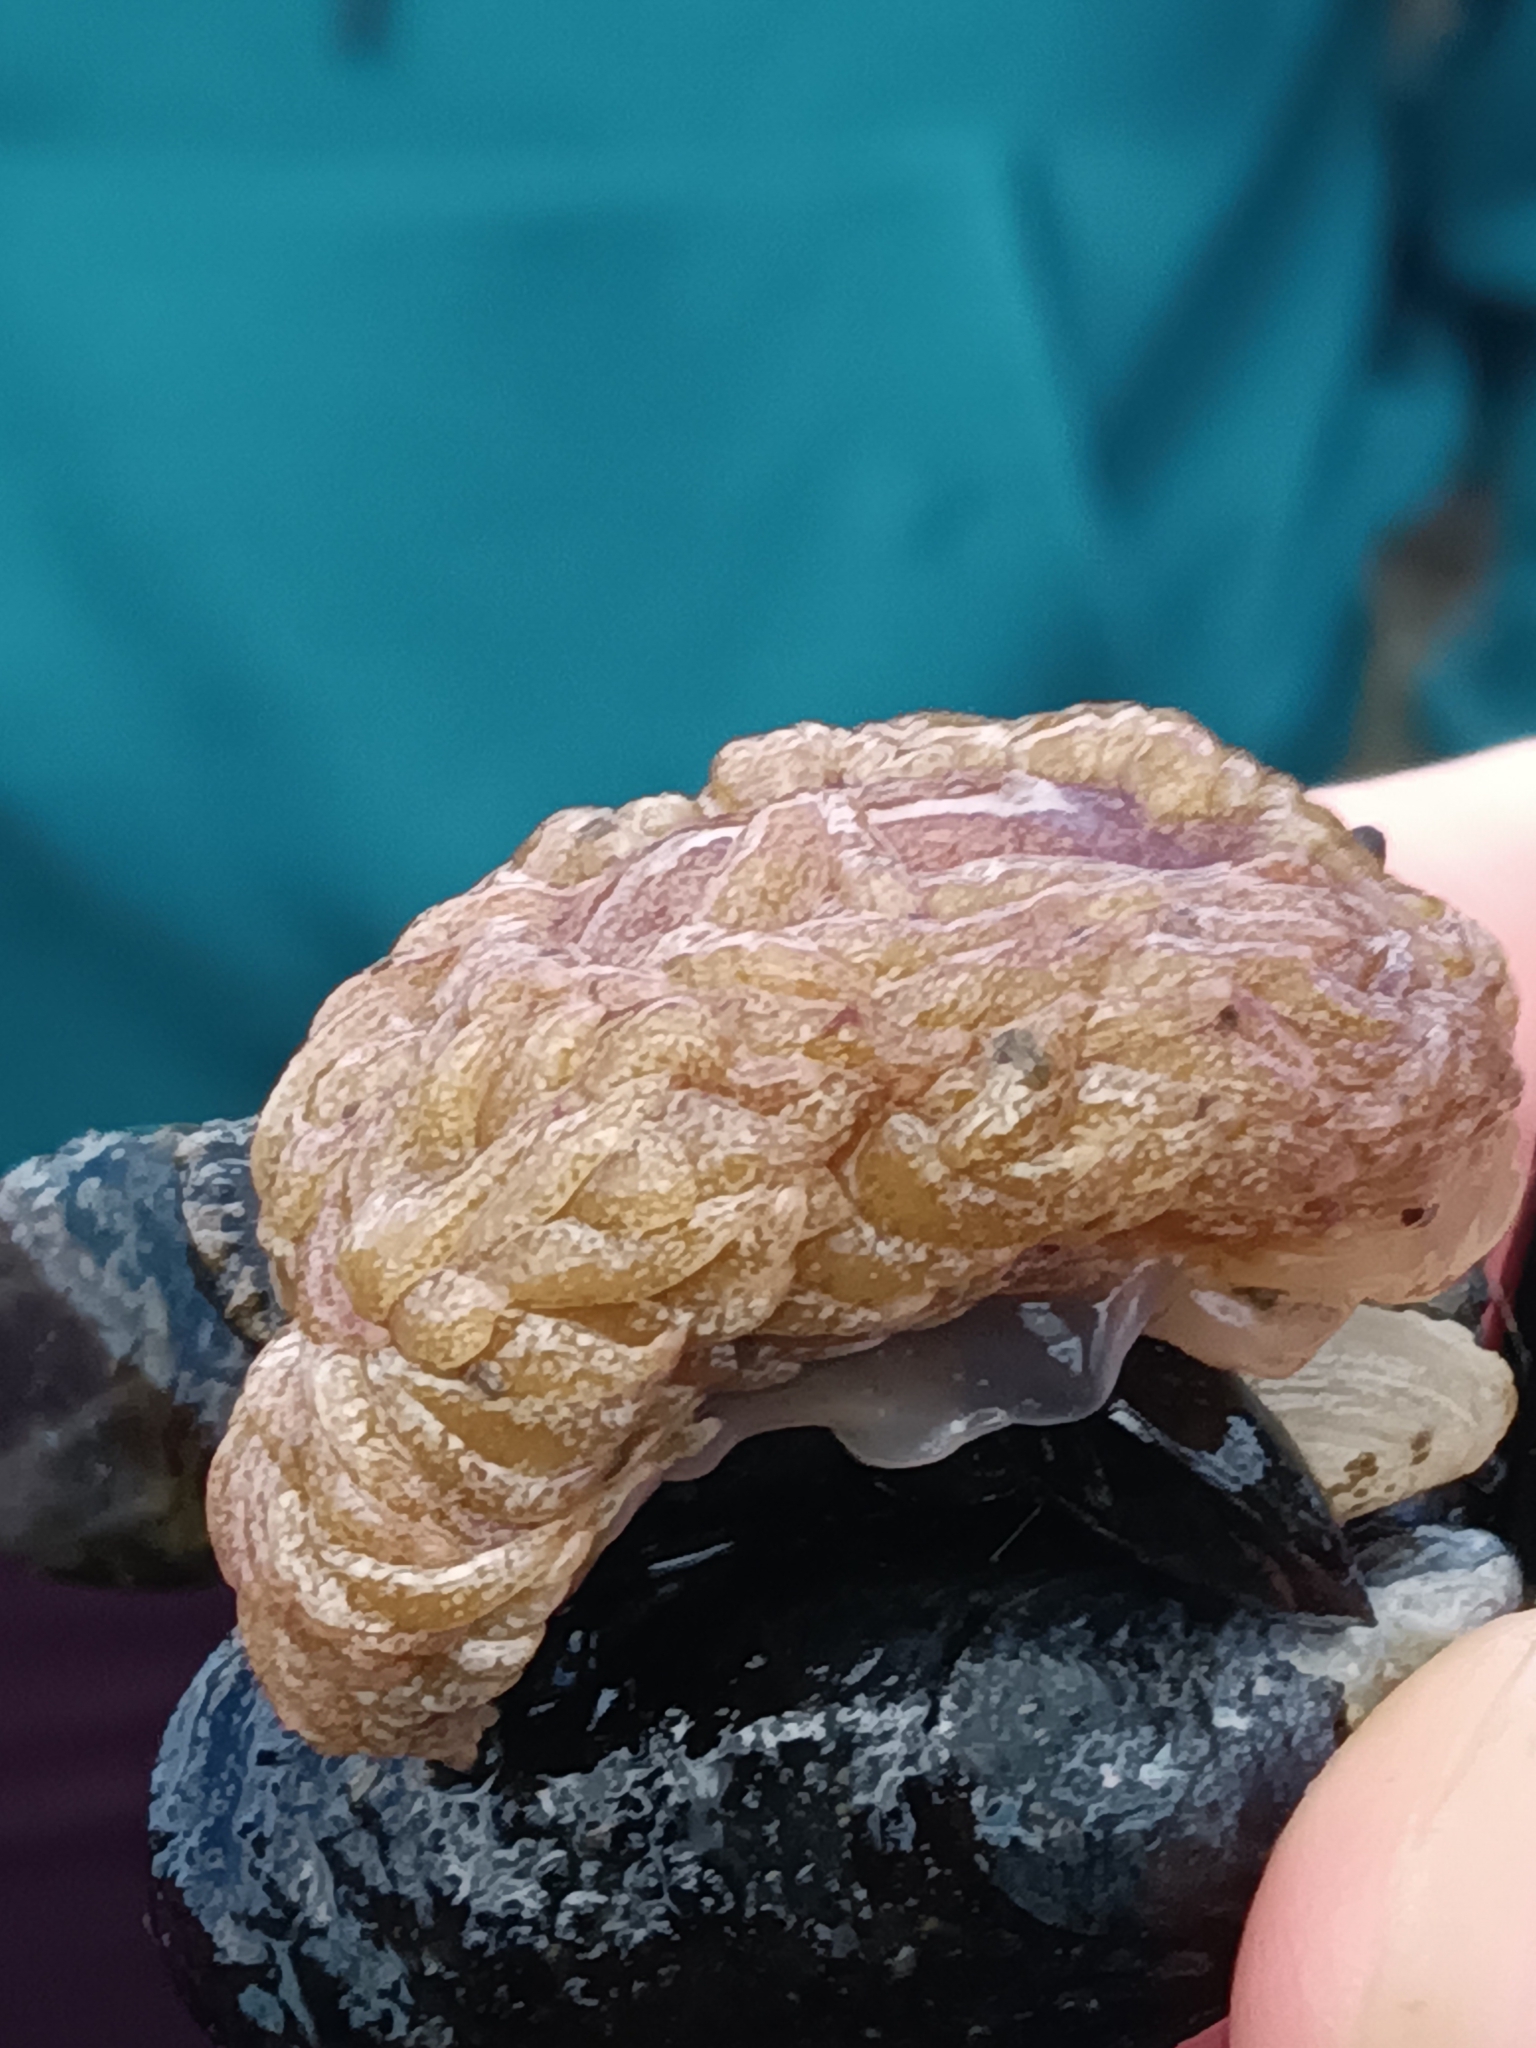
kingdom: Animalia
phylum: Mollusca
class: Gastropoda
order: Nudibranchia
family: Aeolidiidae
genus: Aeolidia
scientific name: Aeolidia papillosa
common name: Common grey sea slug
